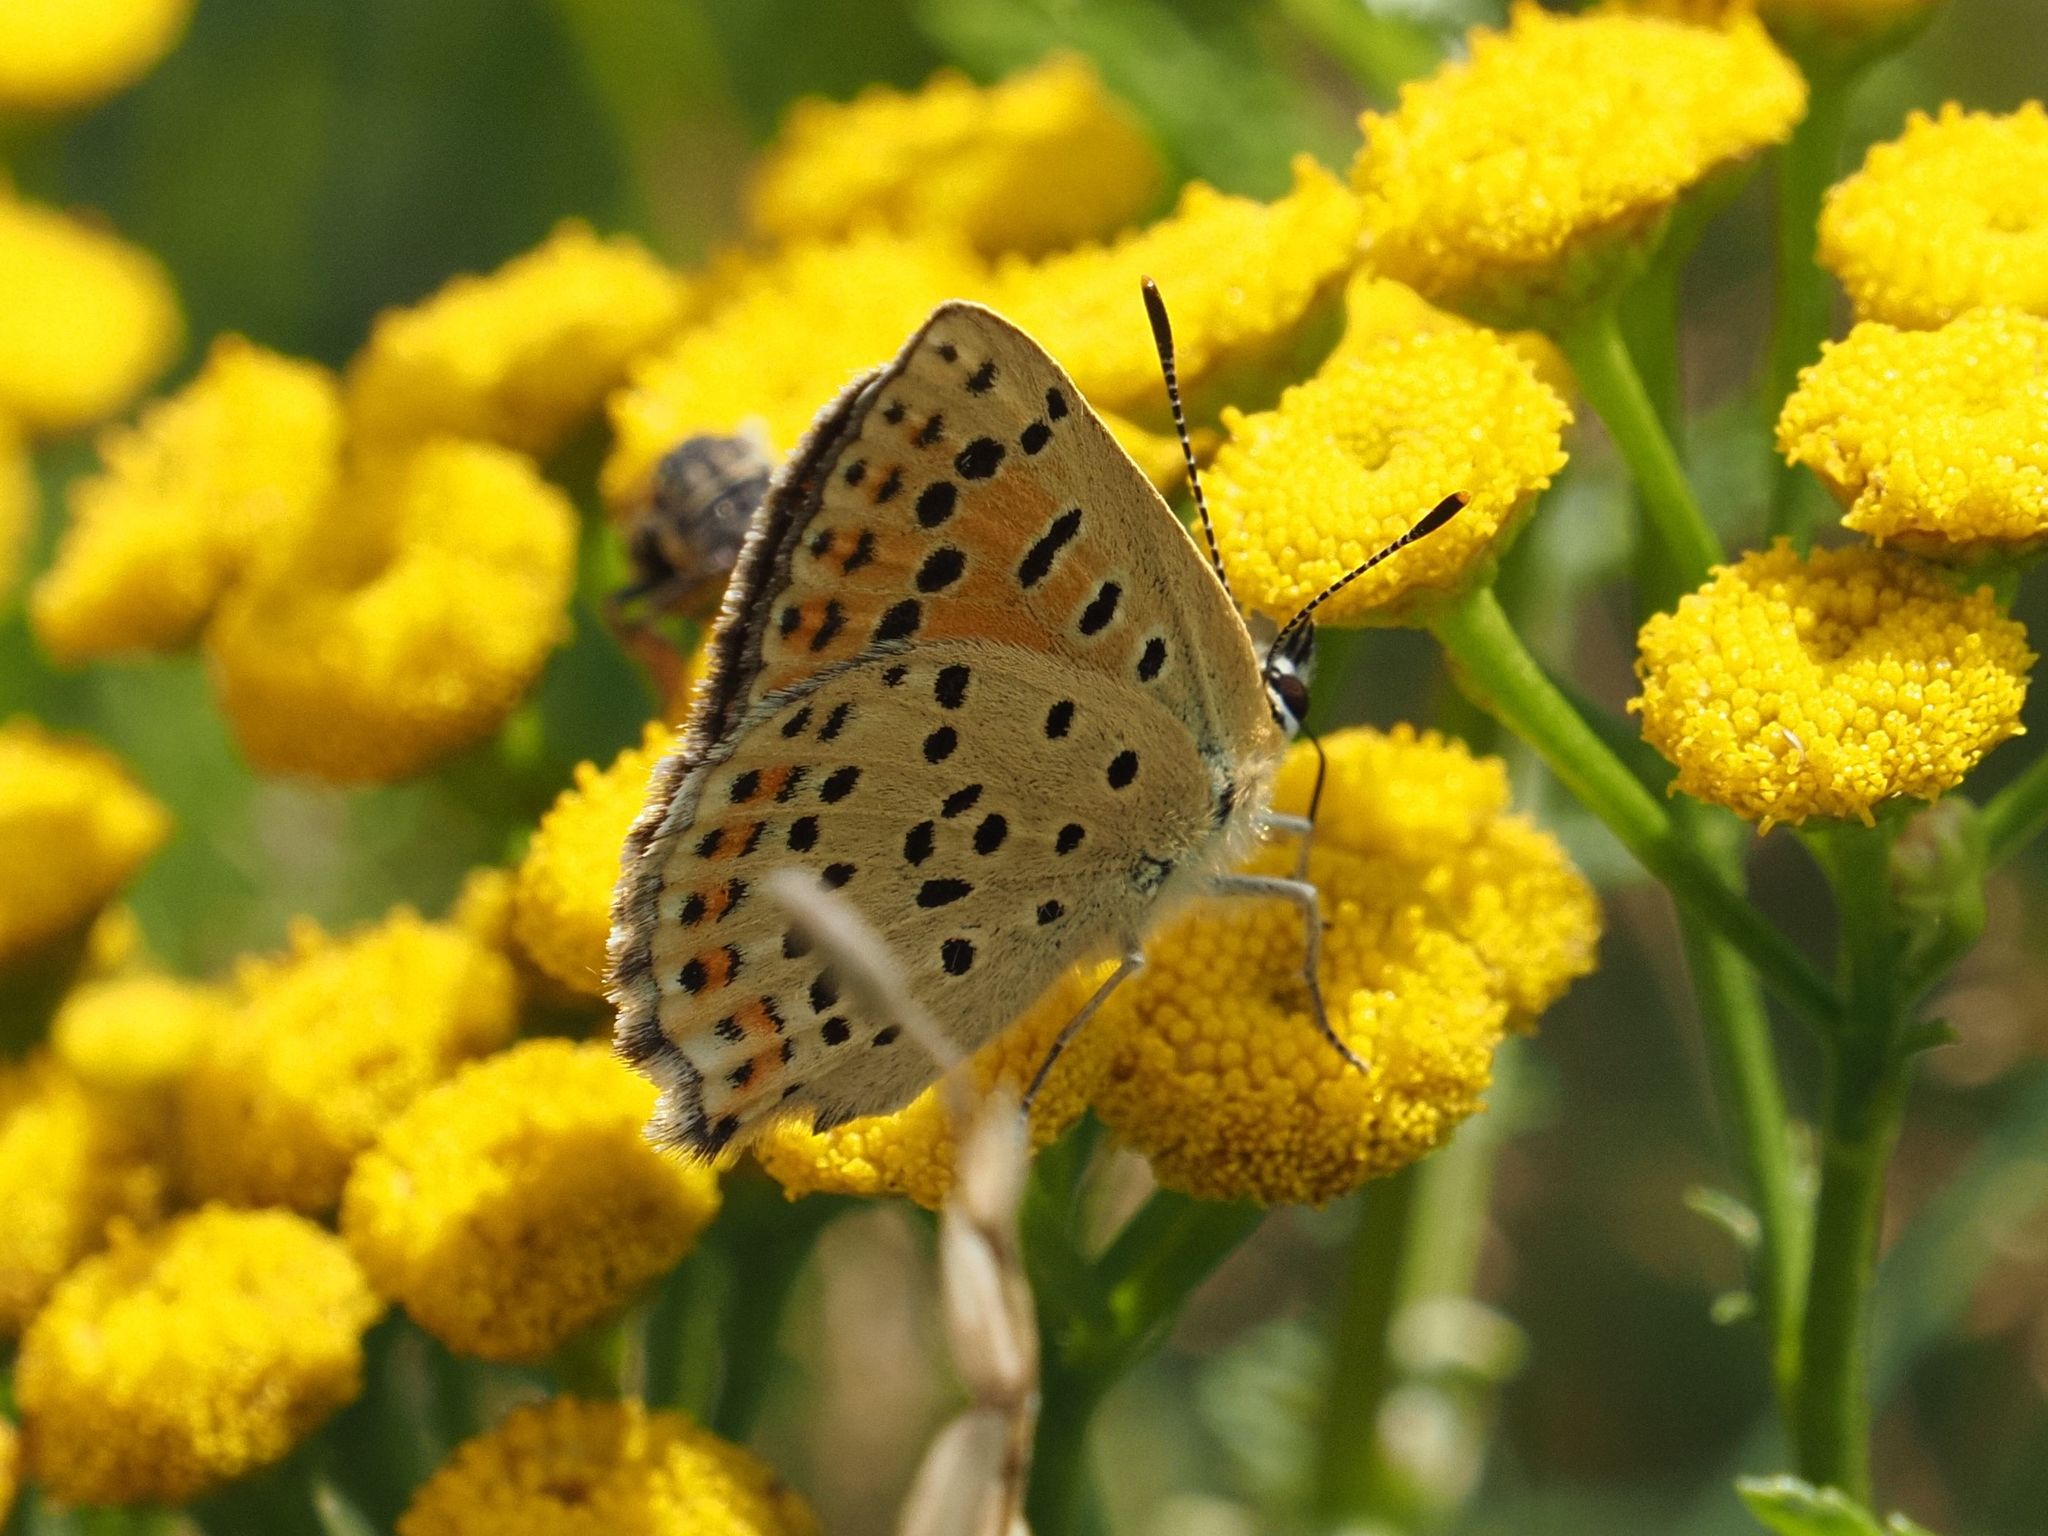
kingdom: Animalia
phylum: Arthropoda
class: Insecta
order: Lepidoptera
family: Lycaenidae
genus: Loweia
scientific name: Loweia tityrus
